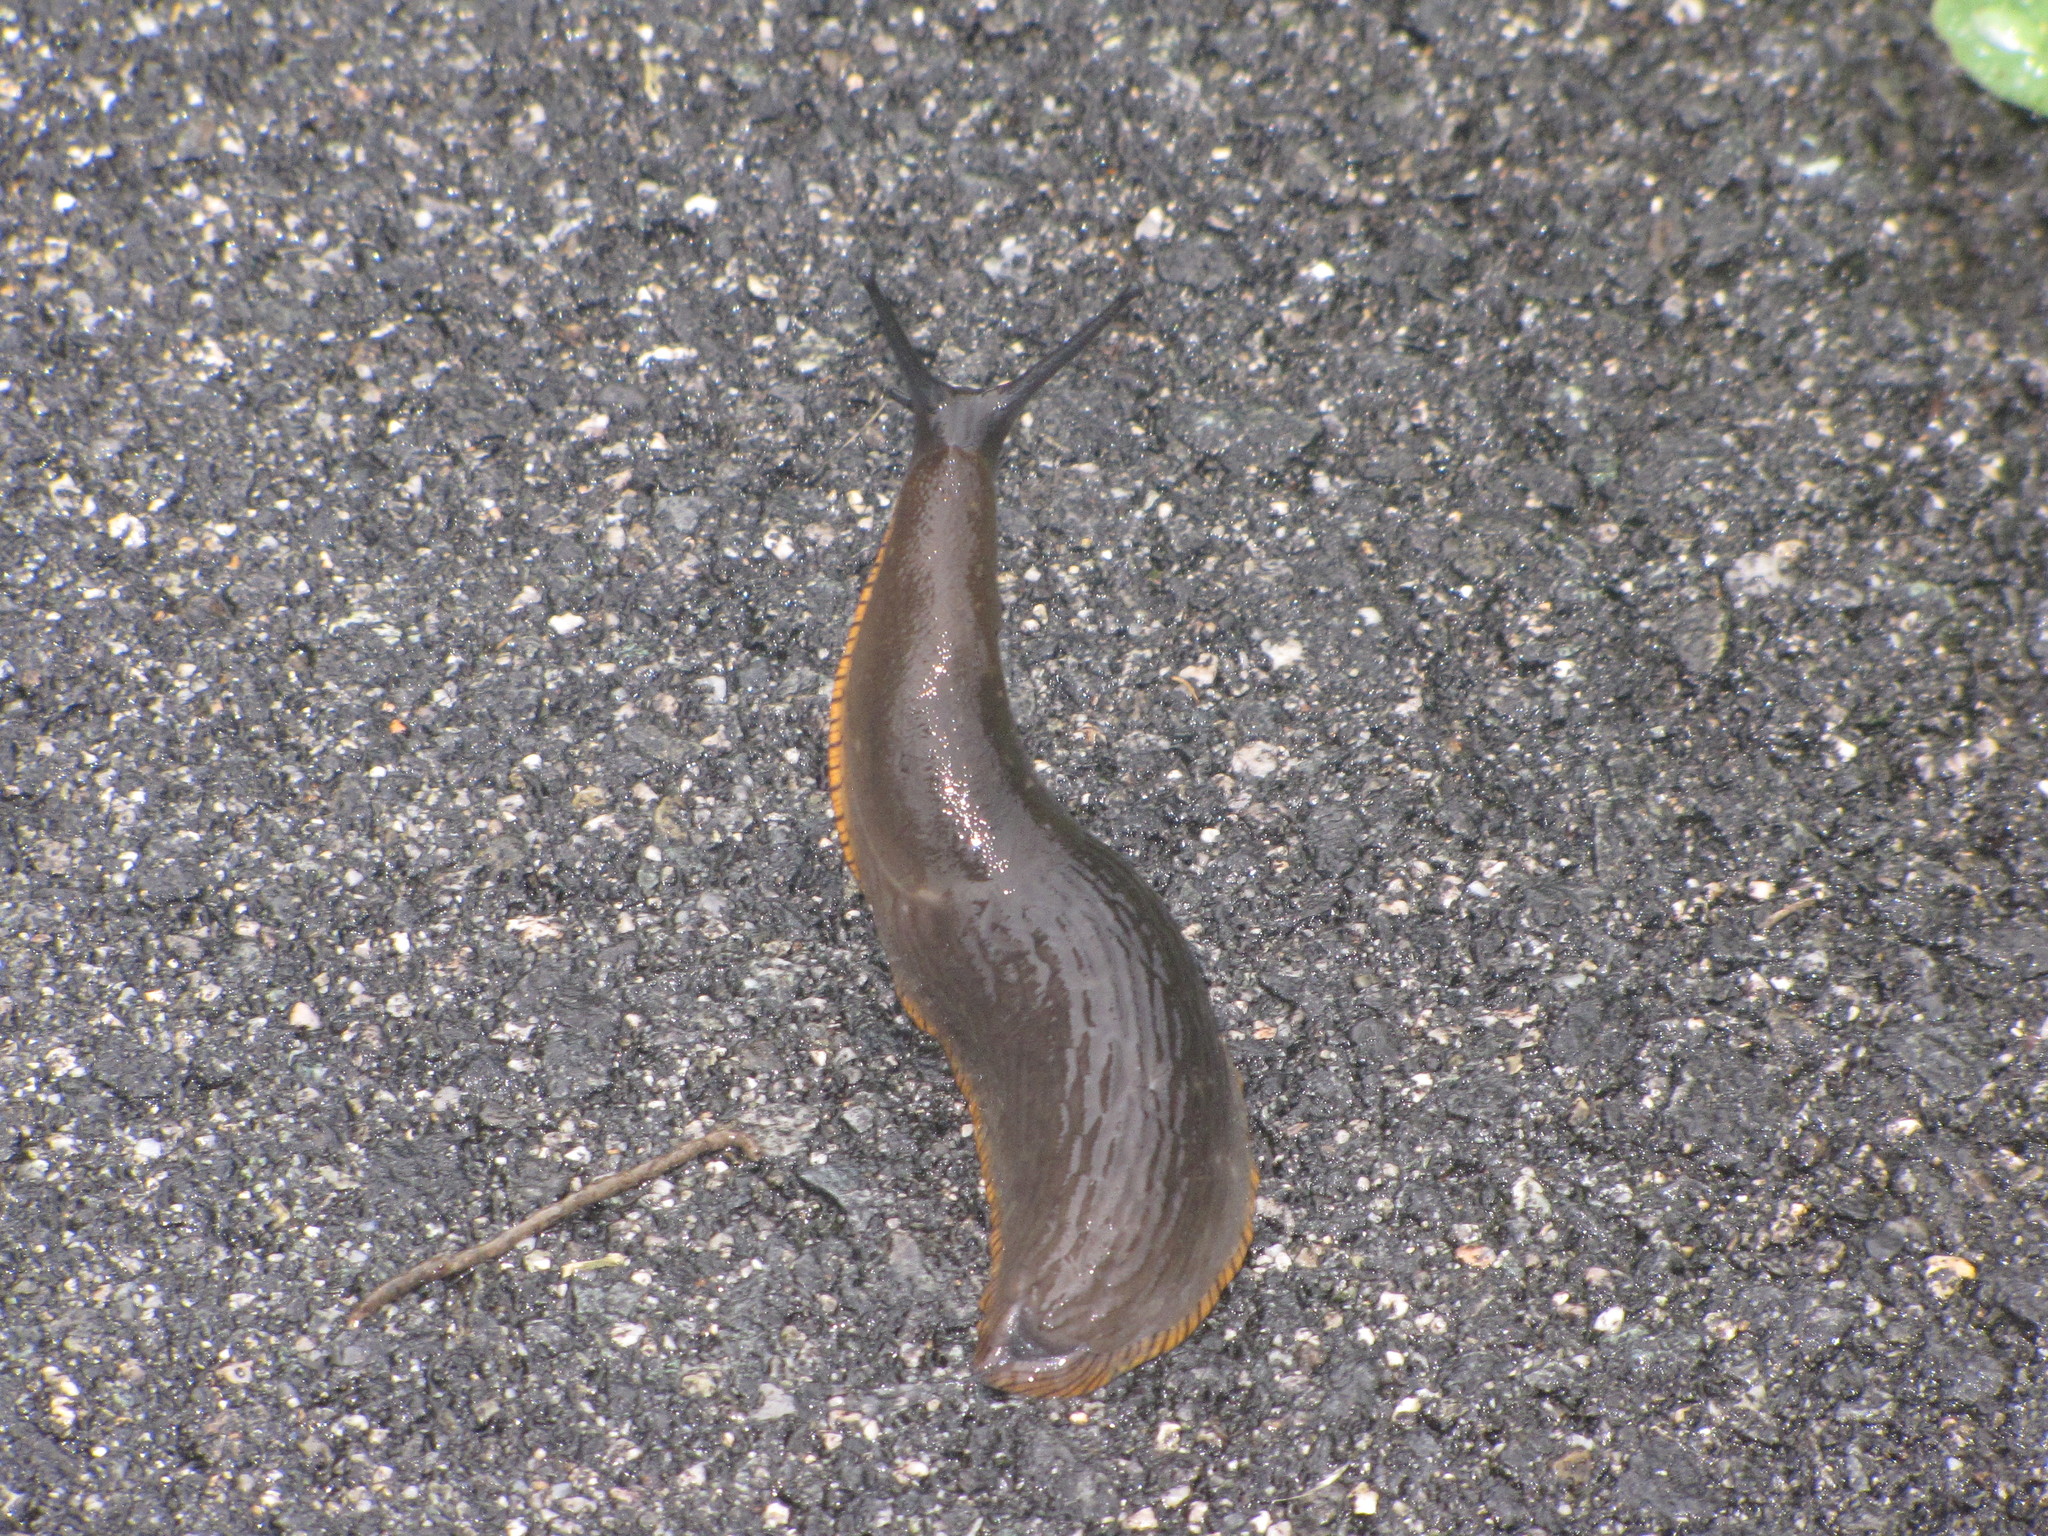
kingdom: Animalia
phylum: Mollusca
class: Gastropoda
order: Stylommatophora
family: Arionidae
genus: Arion
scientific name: Arion rufus
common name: Chocolate arion
